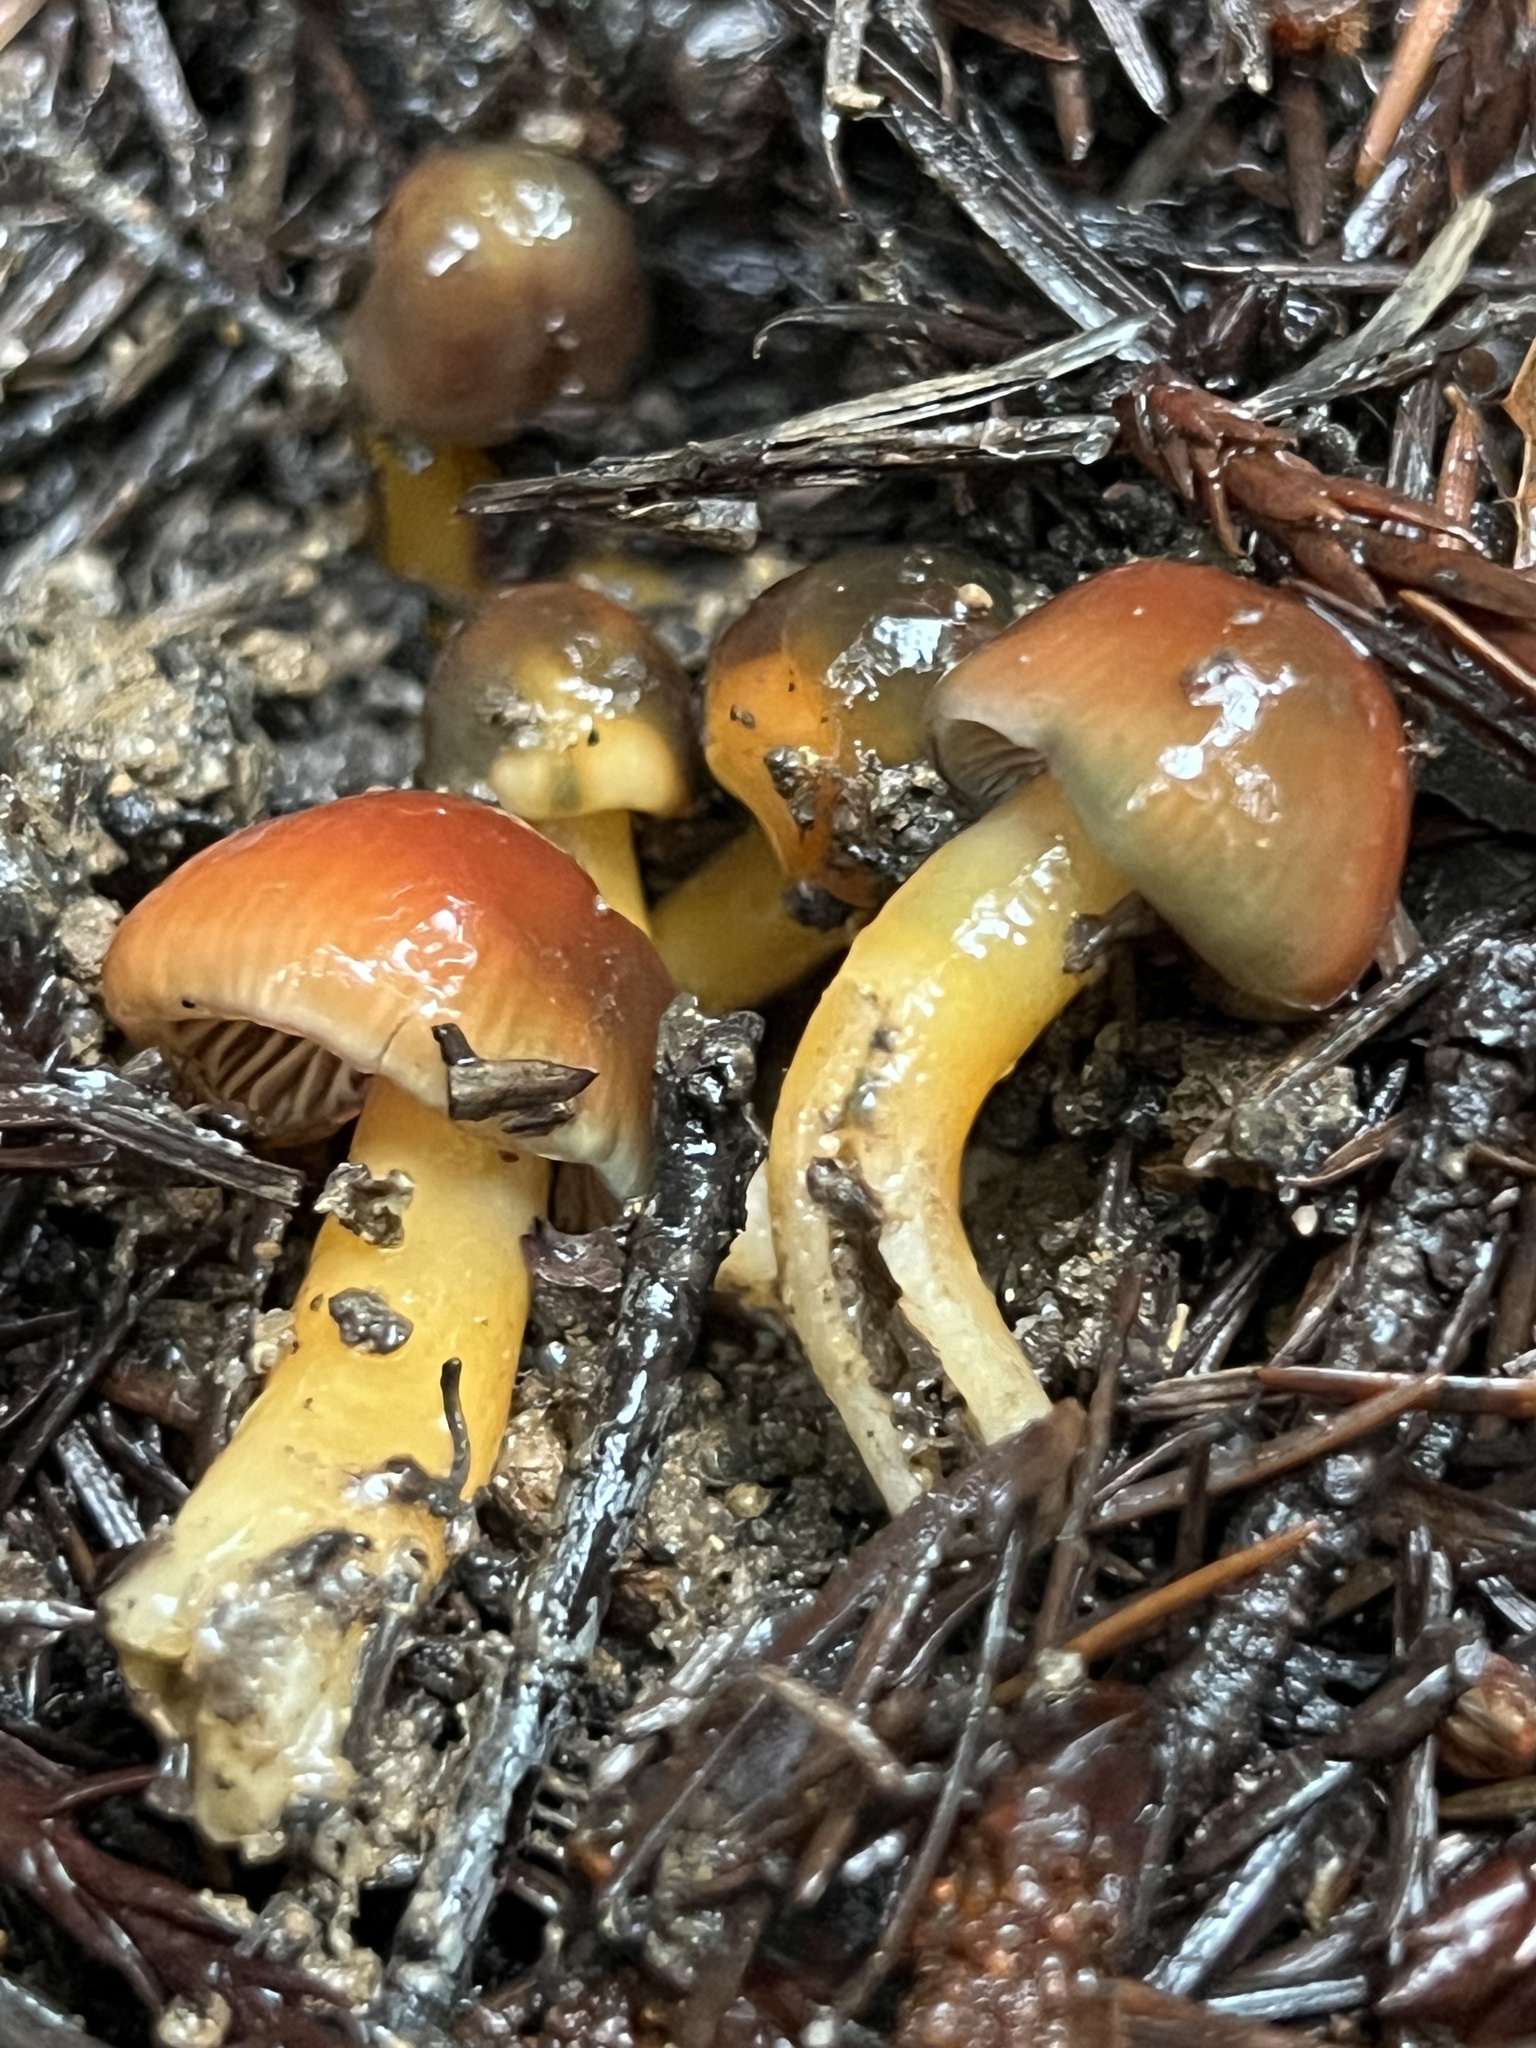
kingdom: Fungi
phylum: Basidiomycota
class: Agaricomycetes
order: Agaricales
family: Hygrophoraceae
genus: Gliophorus
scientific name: Gliophorus psittacinus
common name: Parrot wax-cap
